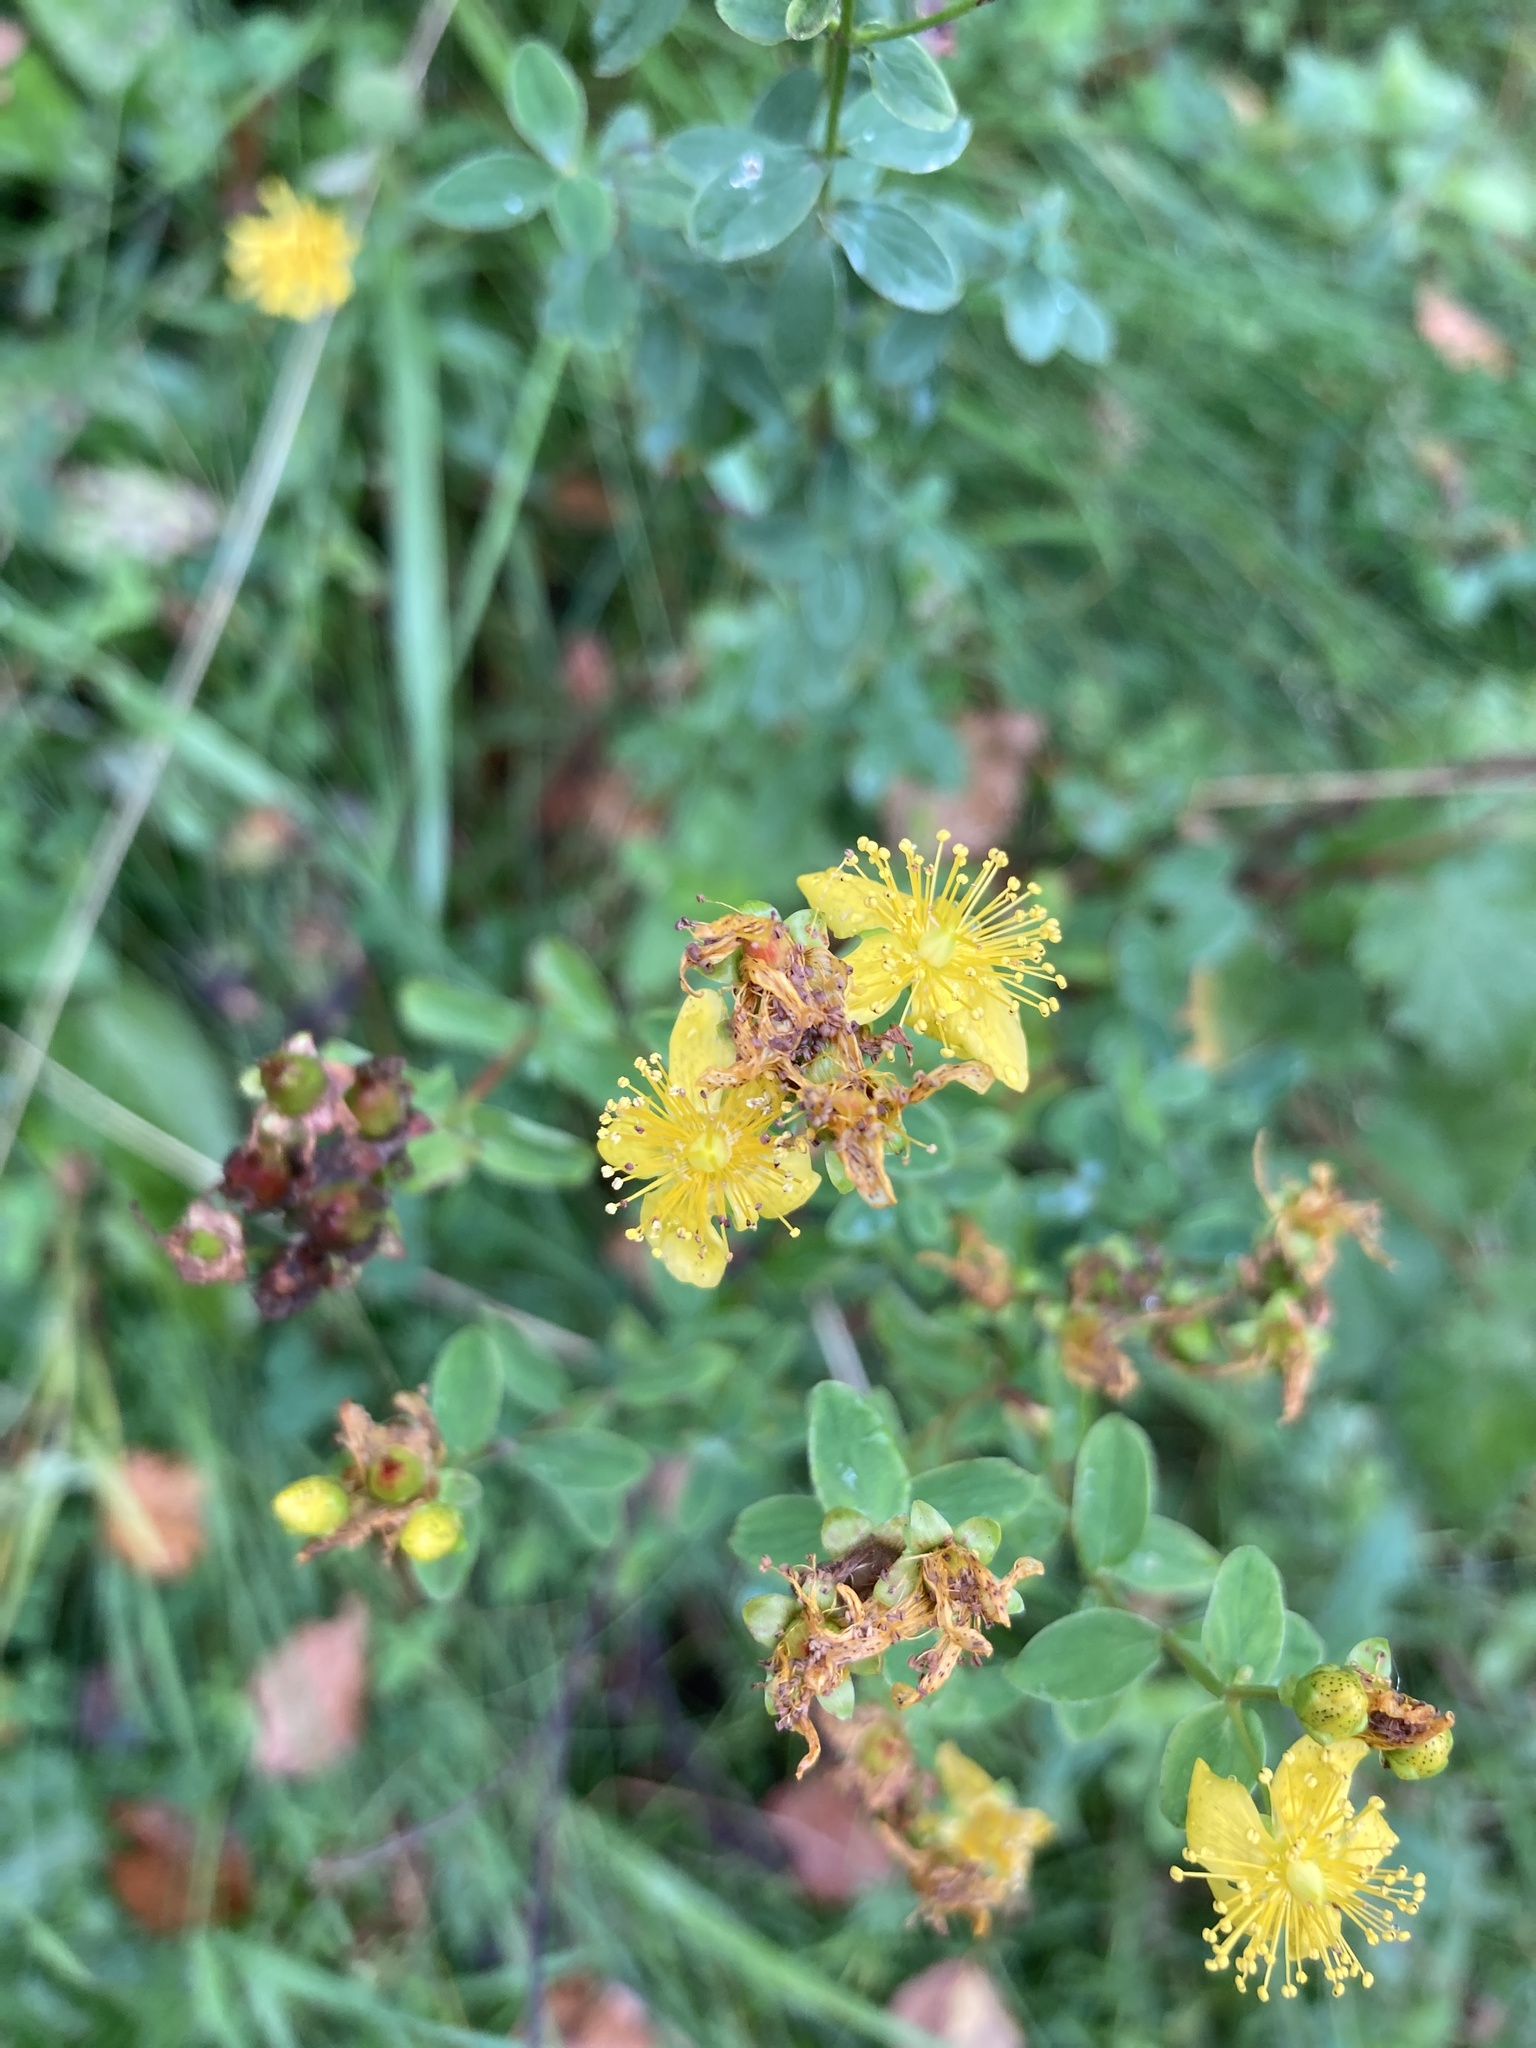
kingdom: Plantae
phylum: Tracheophyta
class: Magnoliopsida
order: Malpighiales
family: Hypericaceae
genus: Hypericum
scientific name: Hypericum maculatum
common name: Imperforate st. john's-wort
